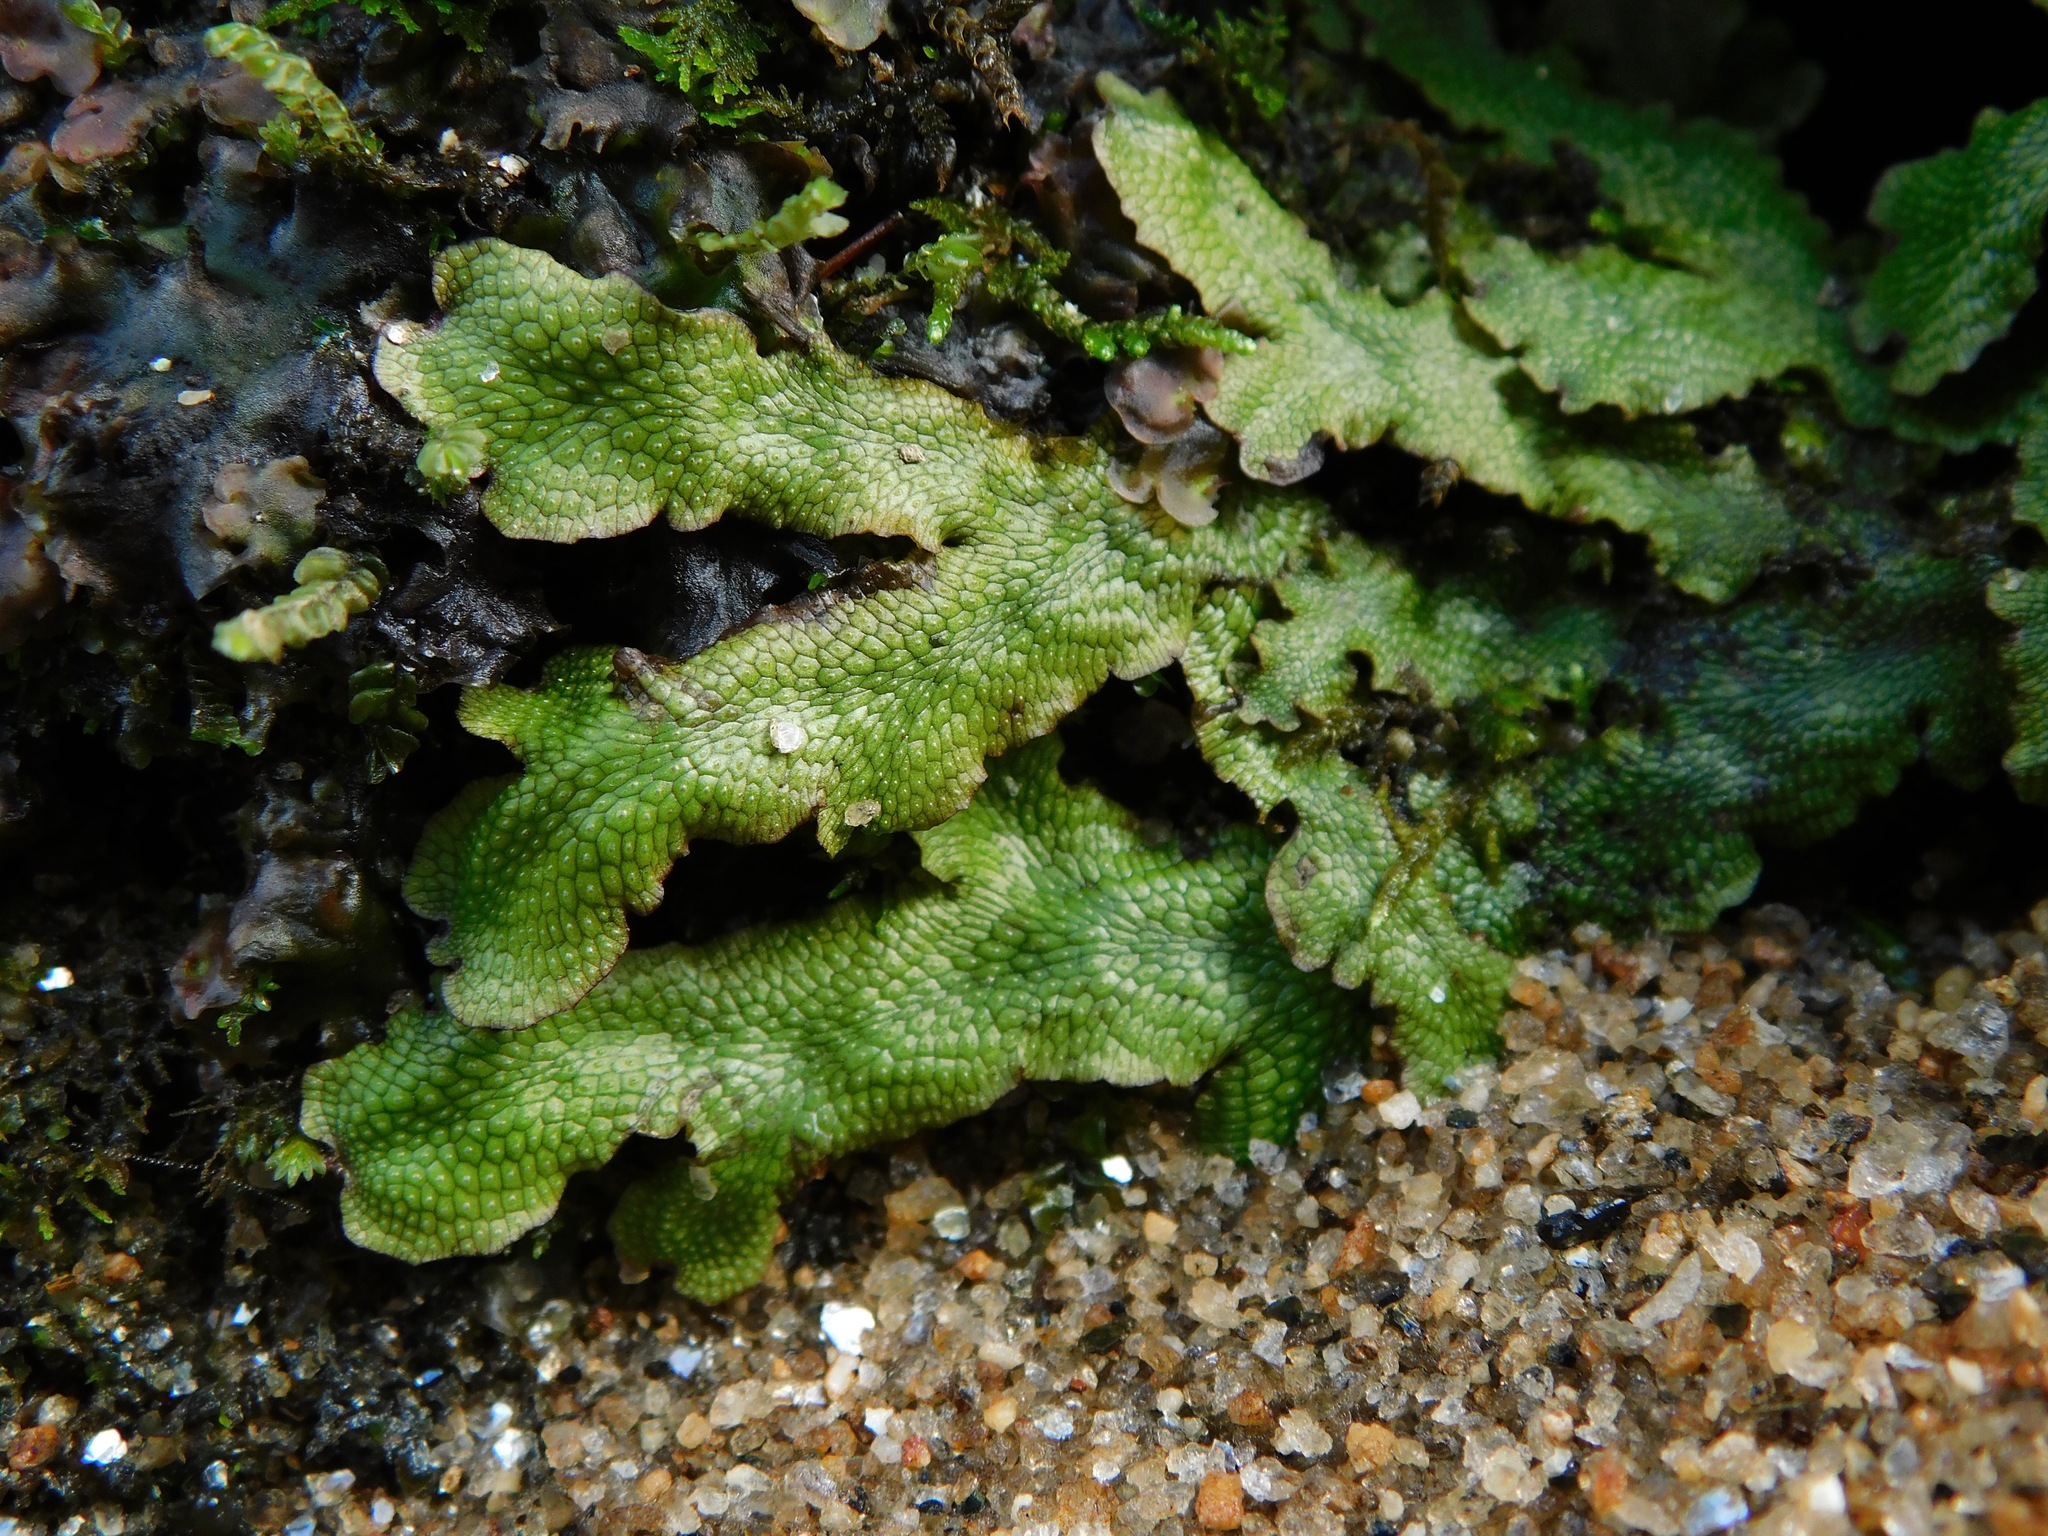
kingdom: Plantae
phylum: Marchantiophyta
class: Marchantiopsida
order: Marchantiales
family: Conocephalaceae
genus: Conocephalum
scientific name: Conocephalum salebrosum
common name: Cat-tongue liverwort
